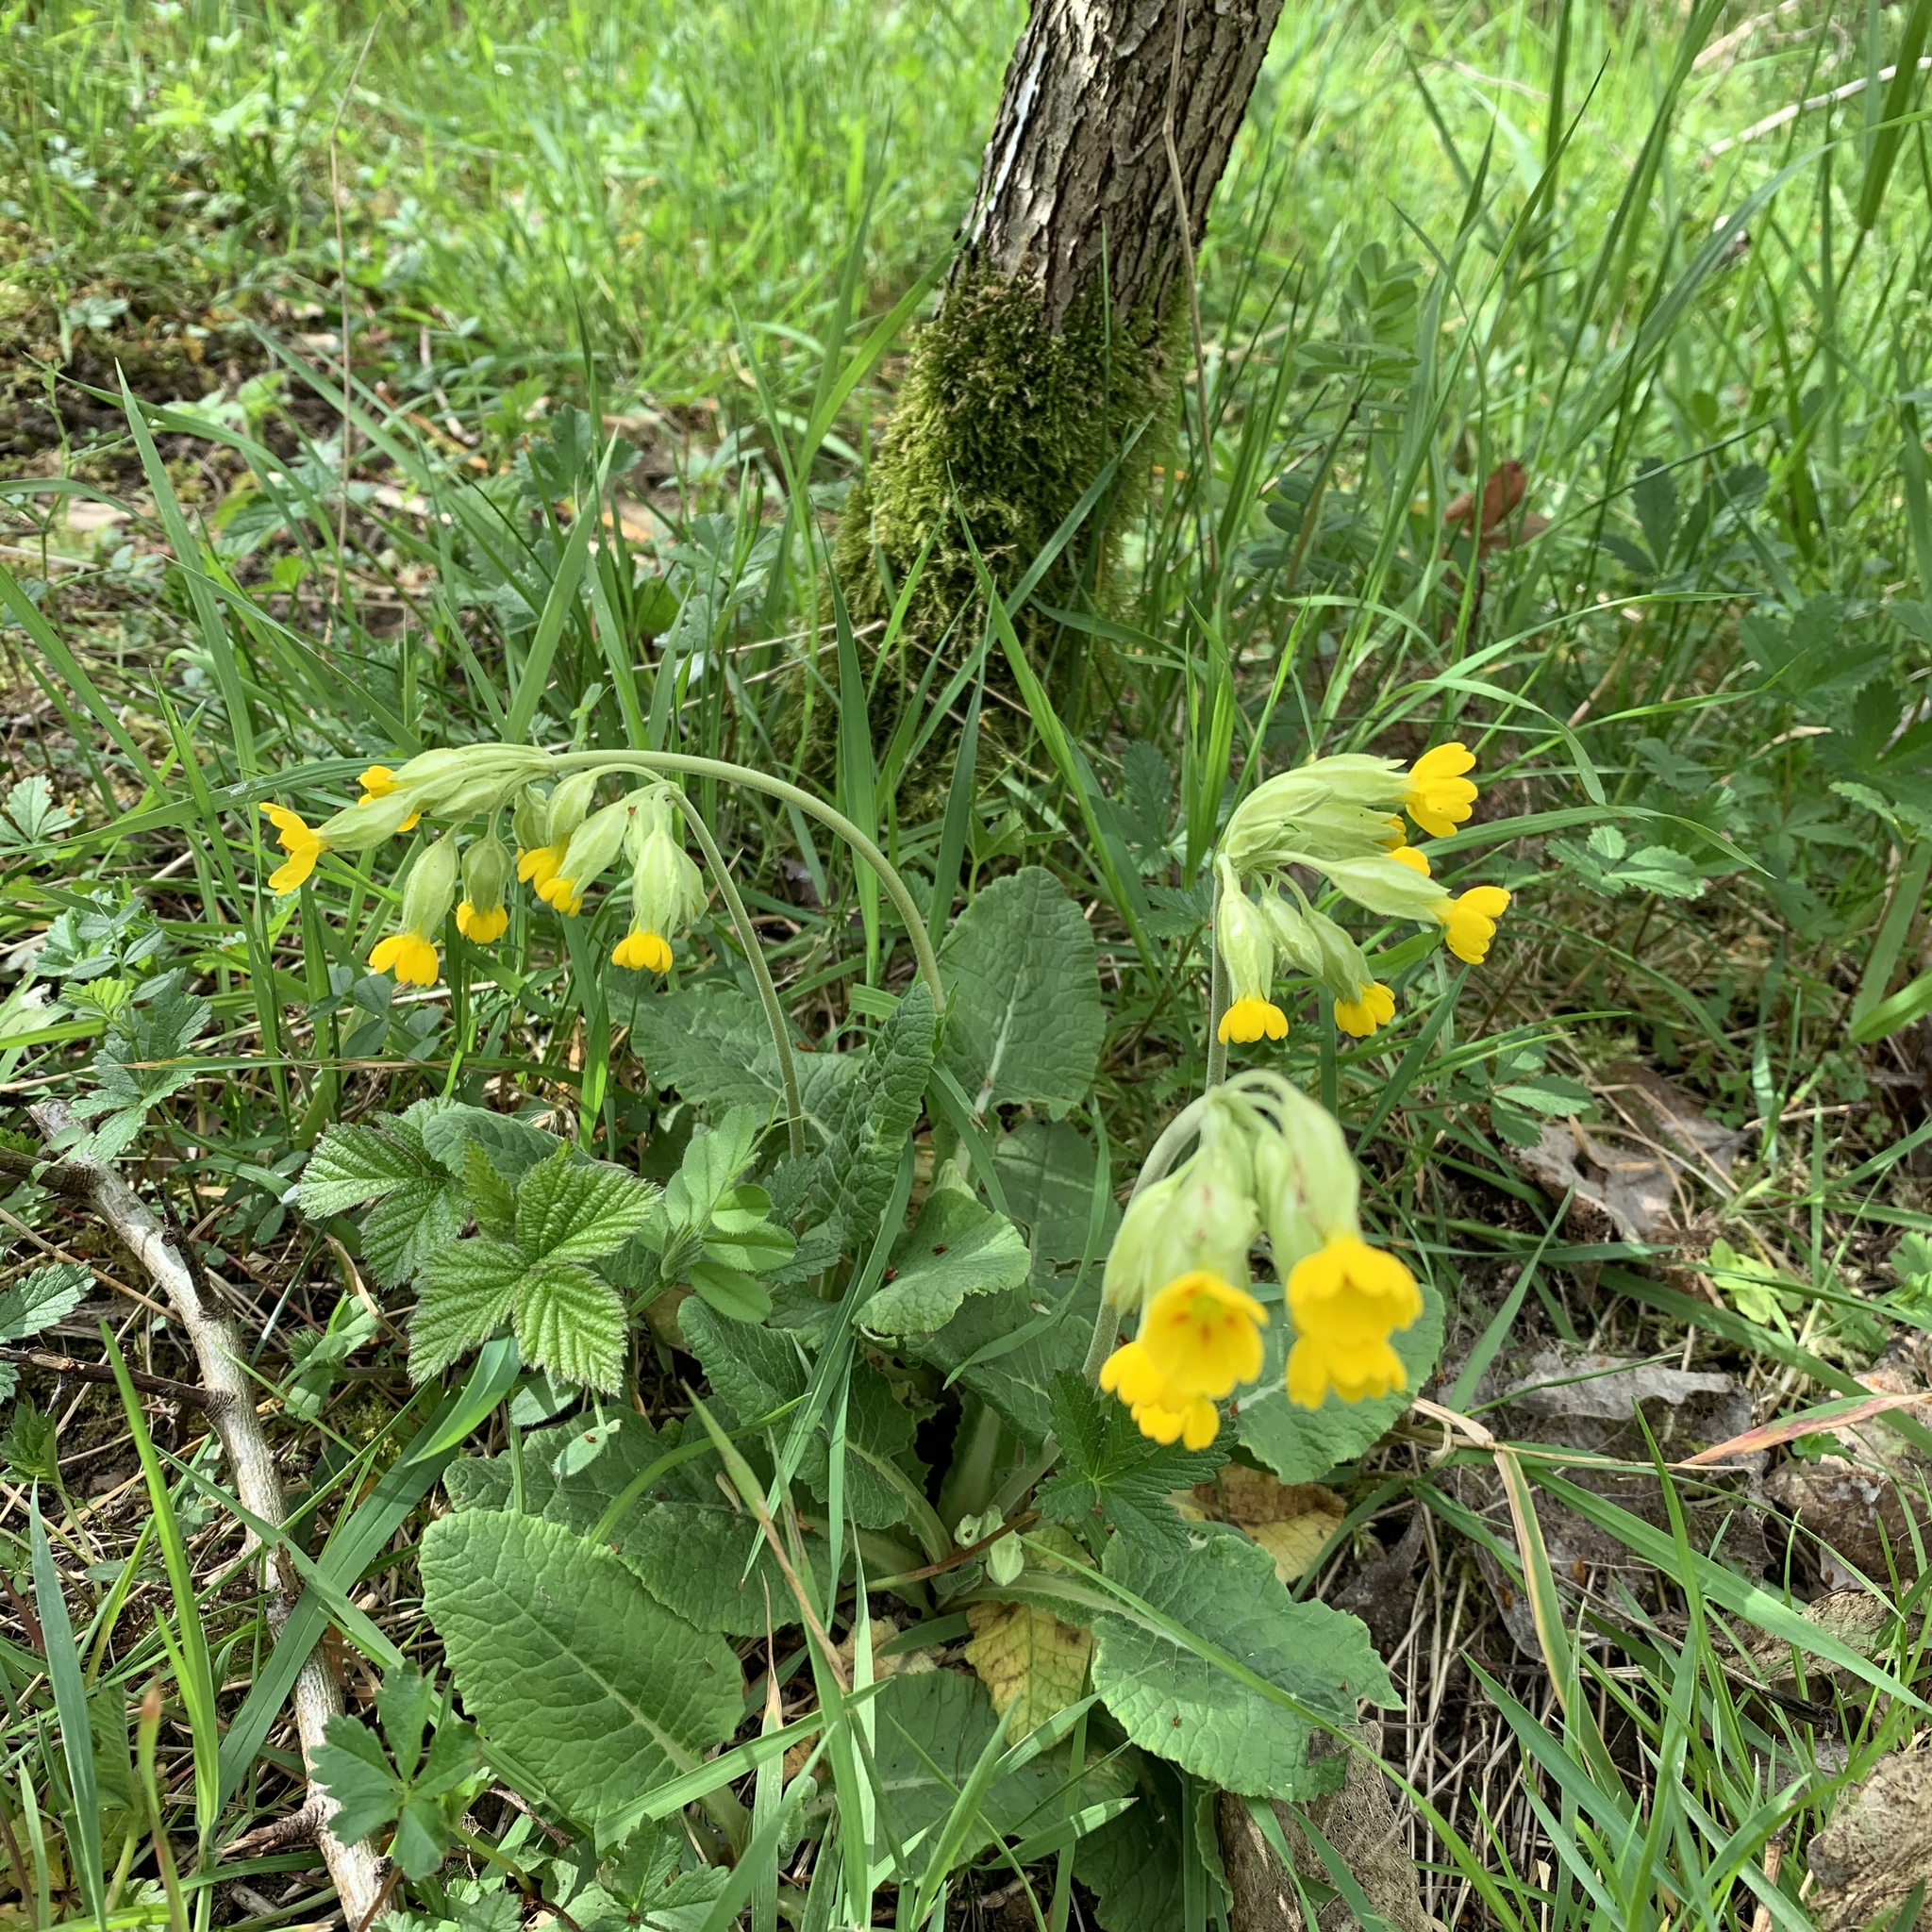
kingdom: Plantae
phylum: Tracheophyta
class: Magnoliopsida
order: Ericales
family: Primulaceae
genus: Primula
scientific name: Primula veris
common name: Cowslip
